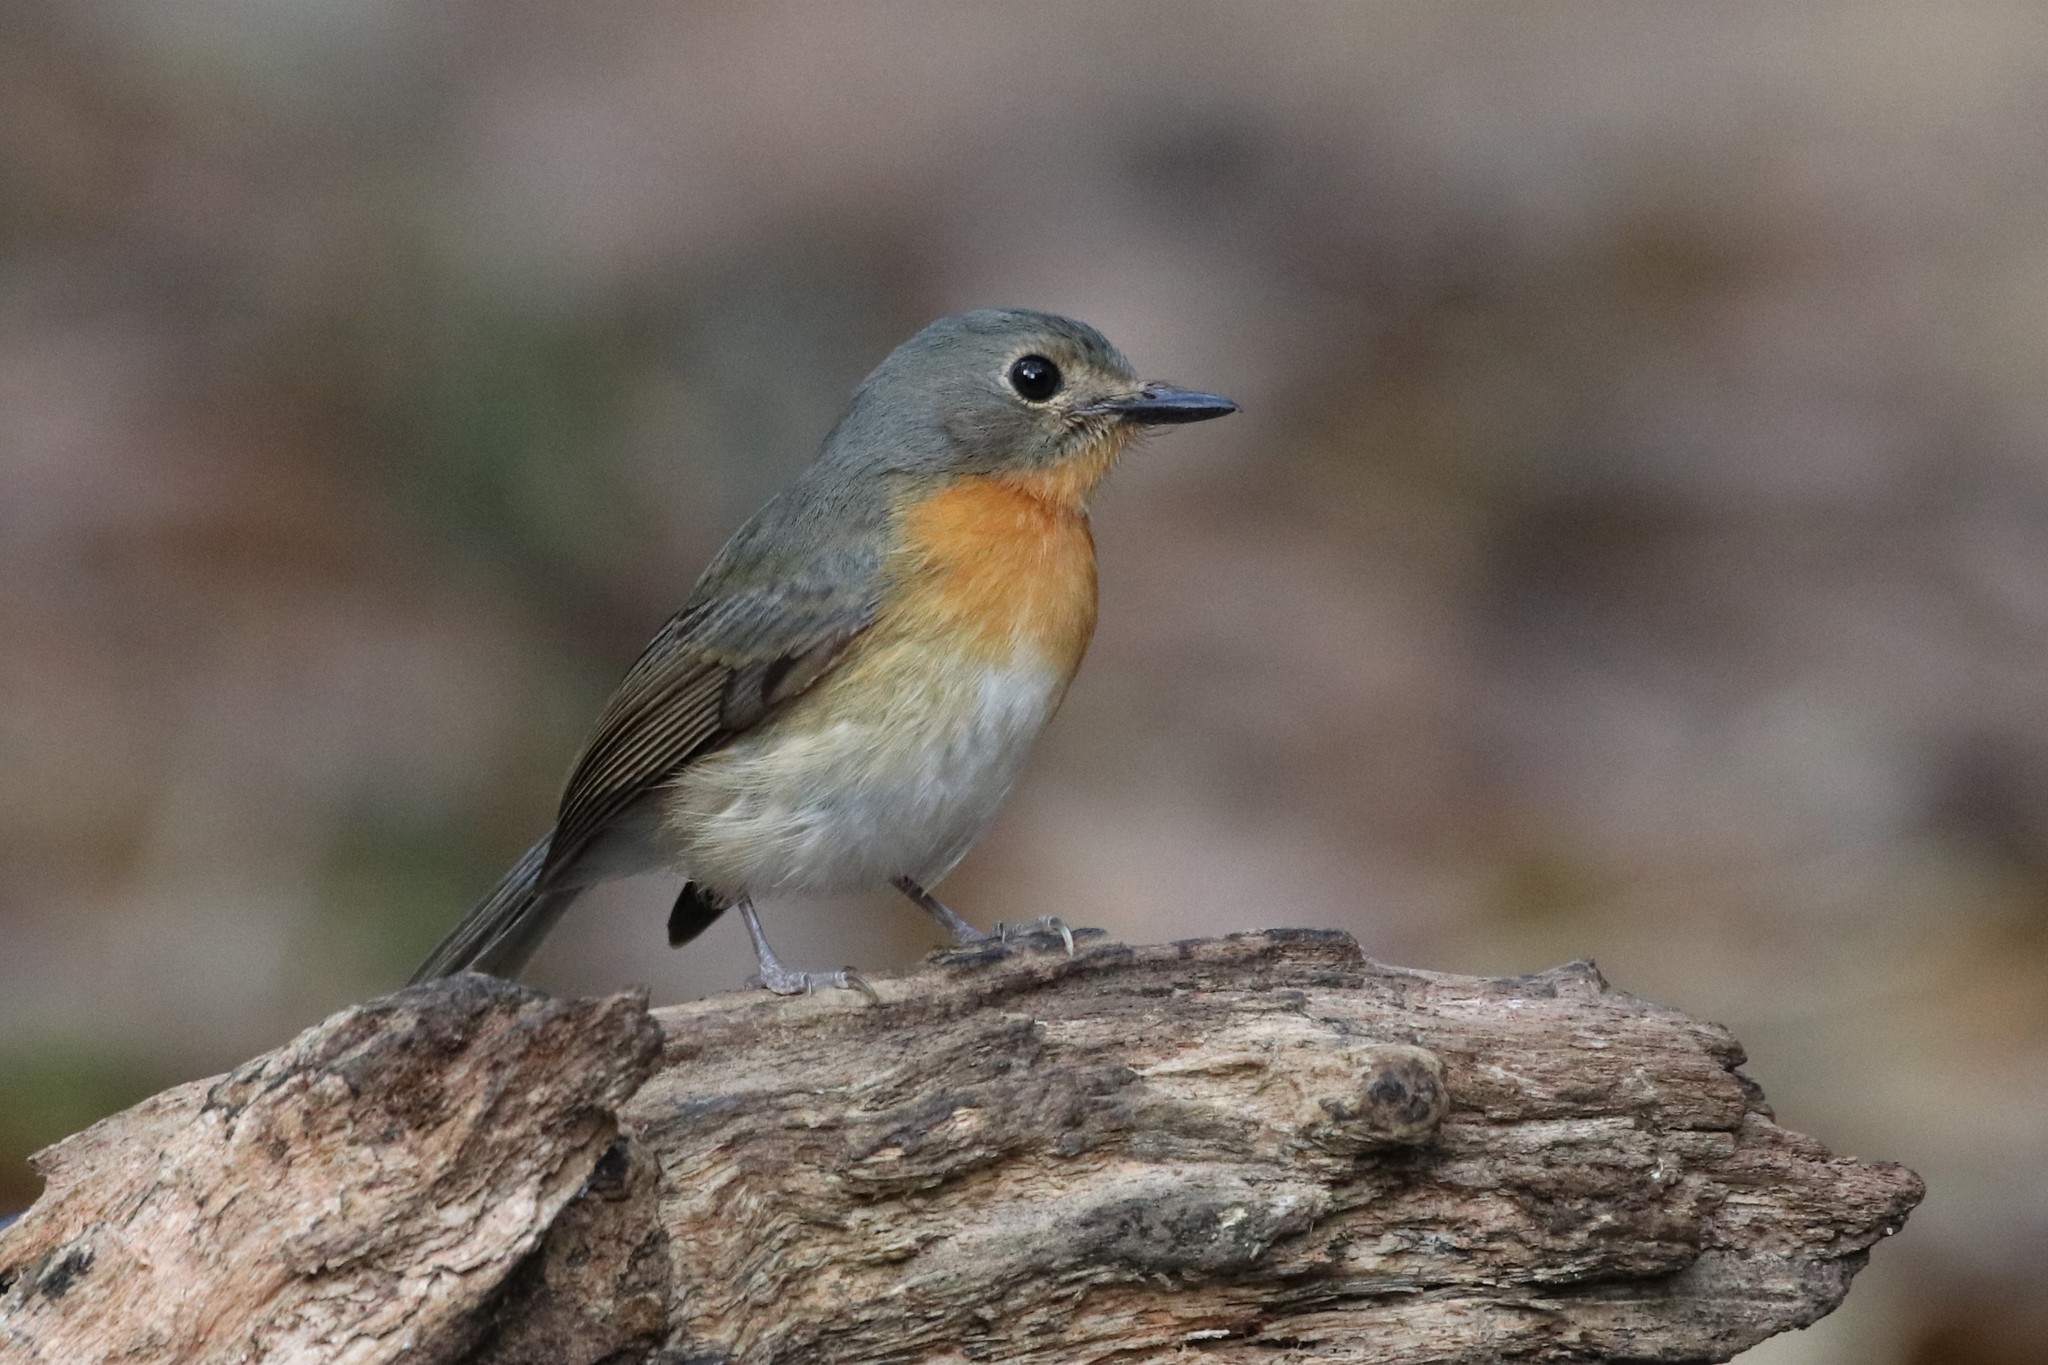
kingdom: Animalia
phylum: Chordata
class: Aves
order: Passeriformes
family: Muscicapidae
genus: Cyornis
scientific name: Cyornis tickelliae
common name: Tickell's blue flycatcher
